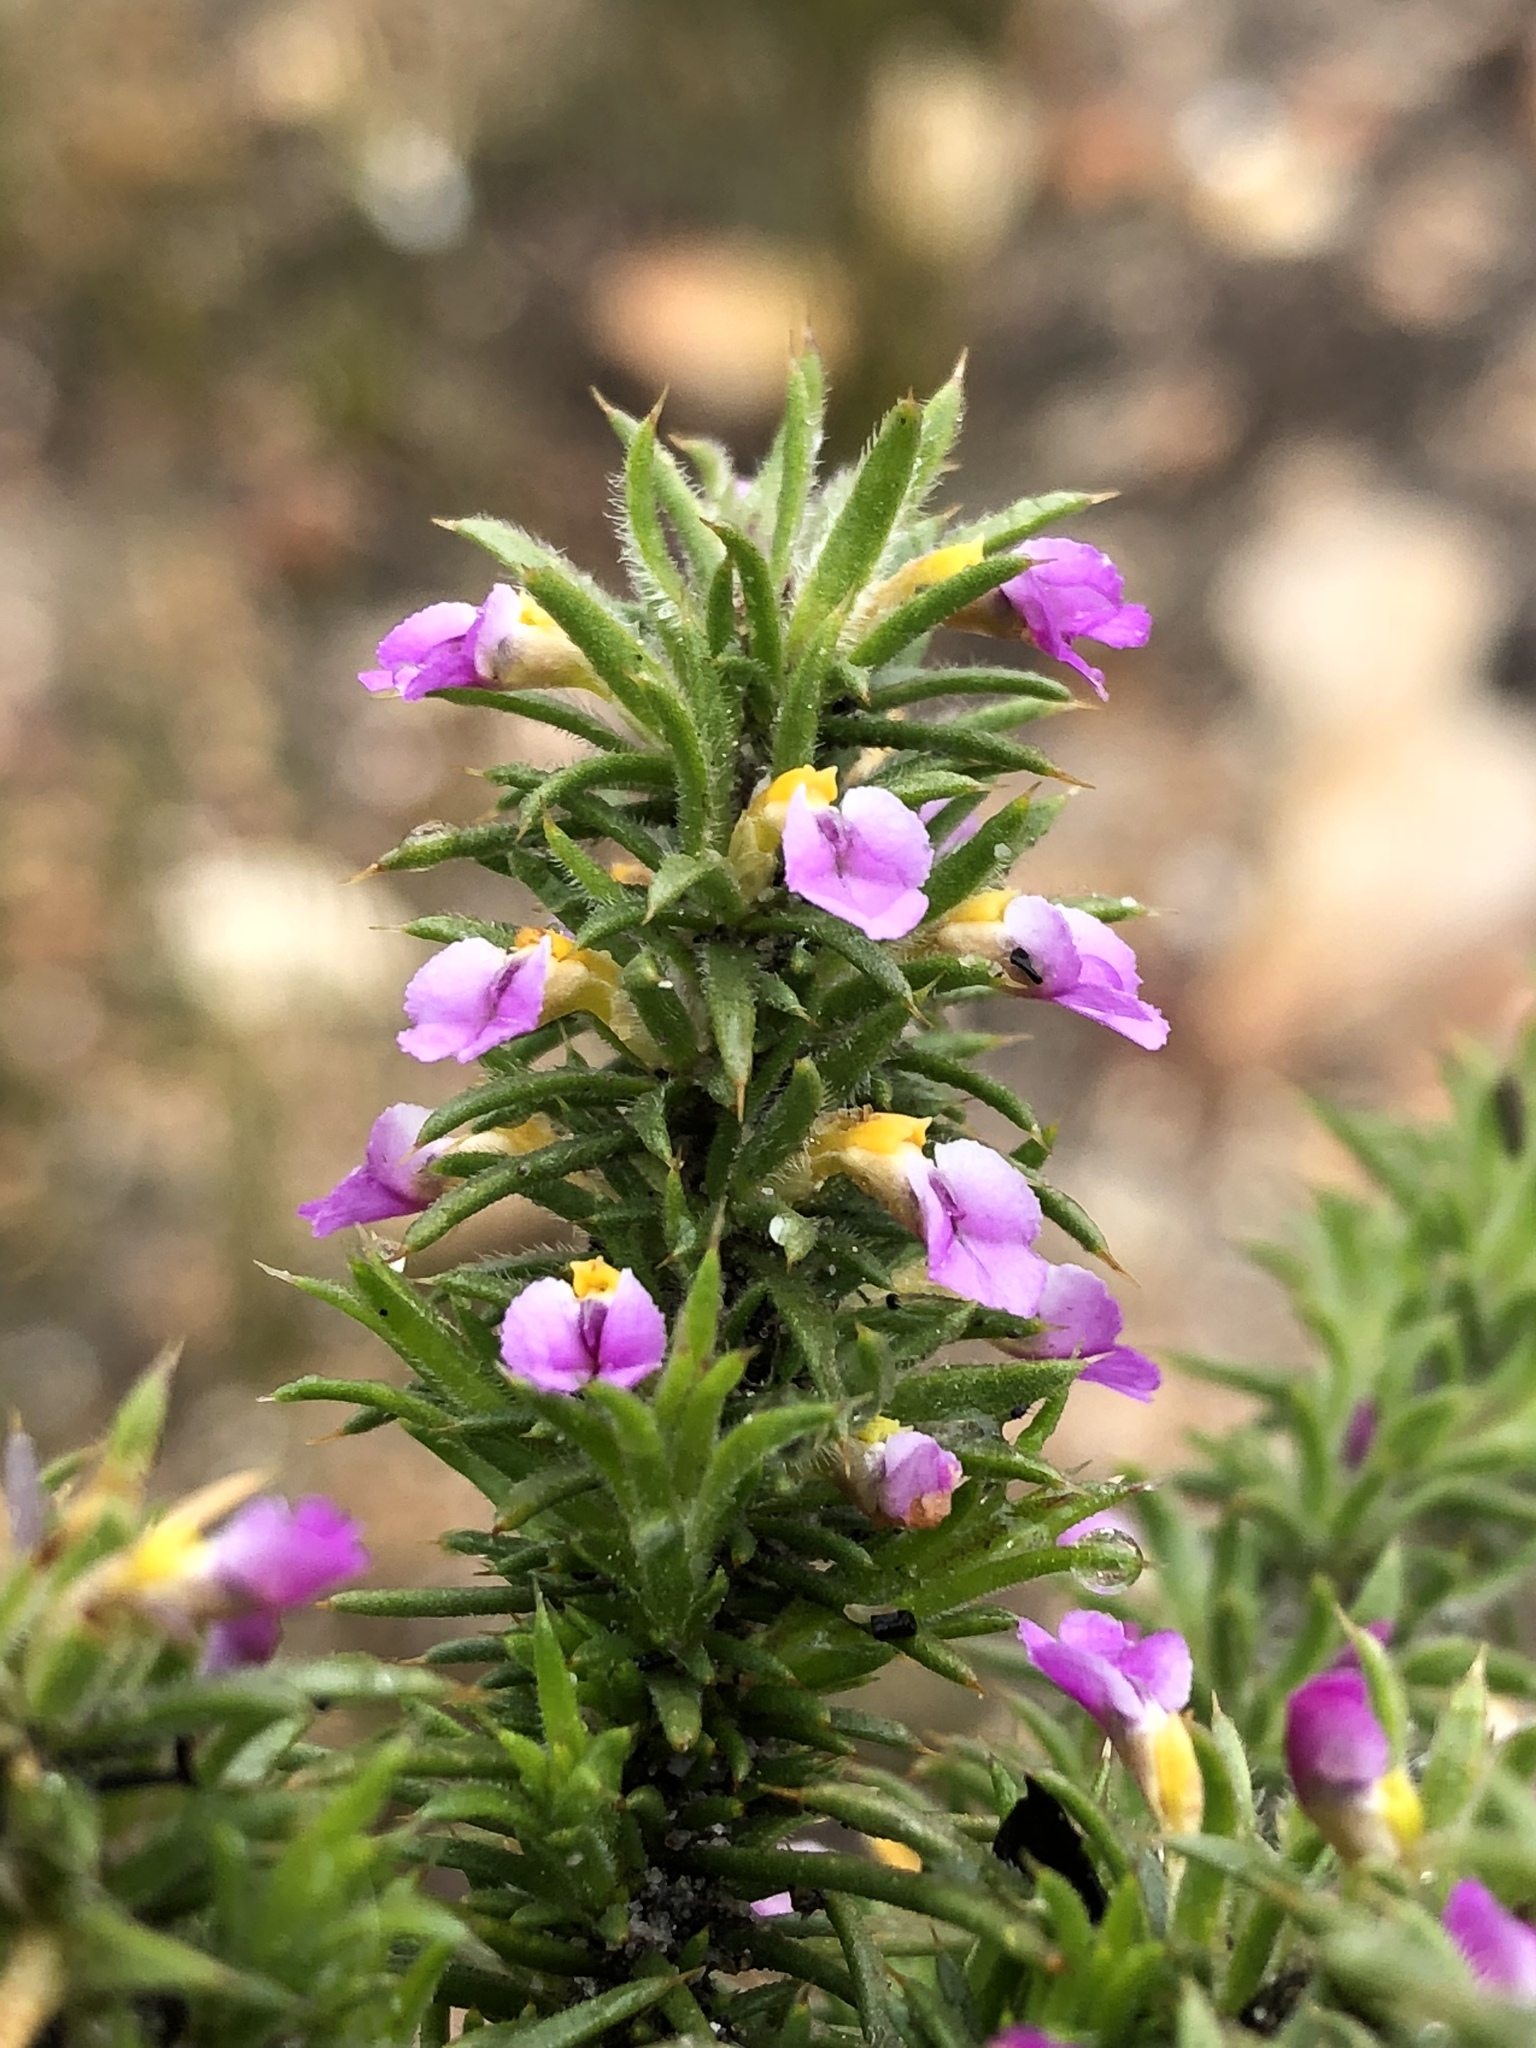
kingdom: Plantae
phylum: Tracheophyta
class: Magnoliopsida
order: Fabales
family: Polygalaceae
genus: Muraltia
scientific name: Muraltia squarrosa
